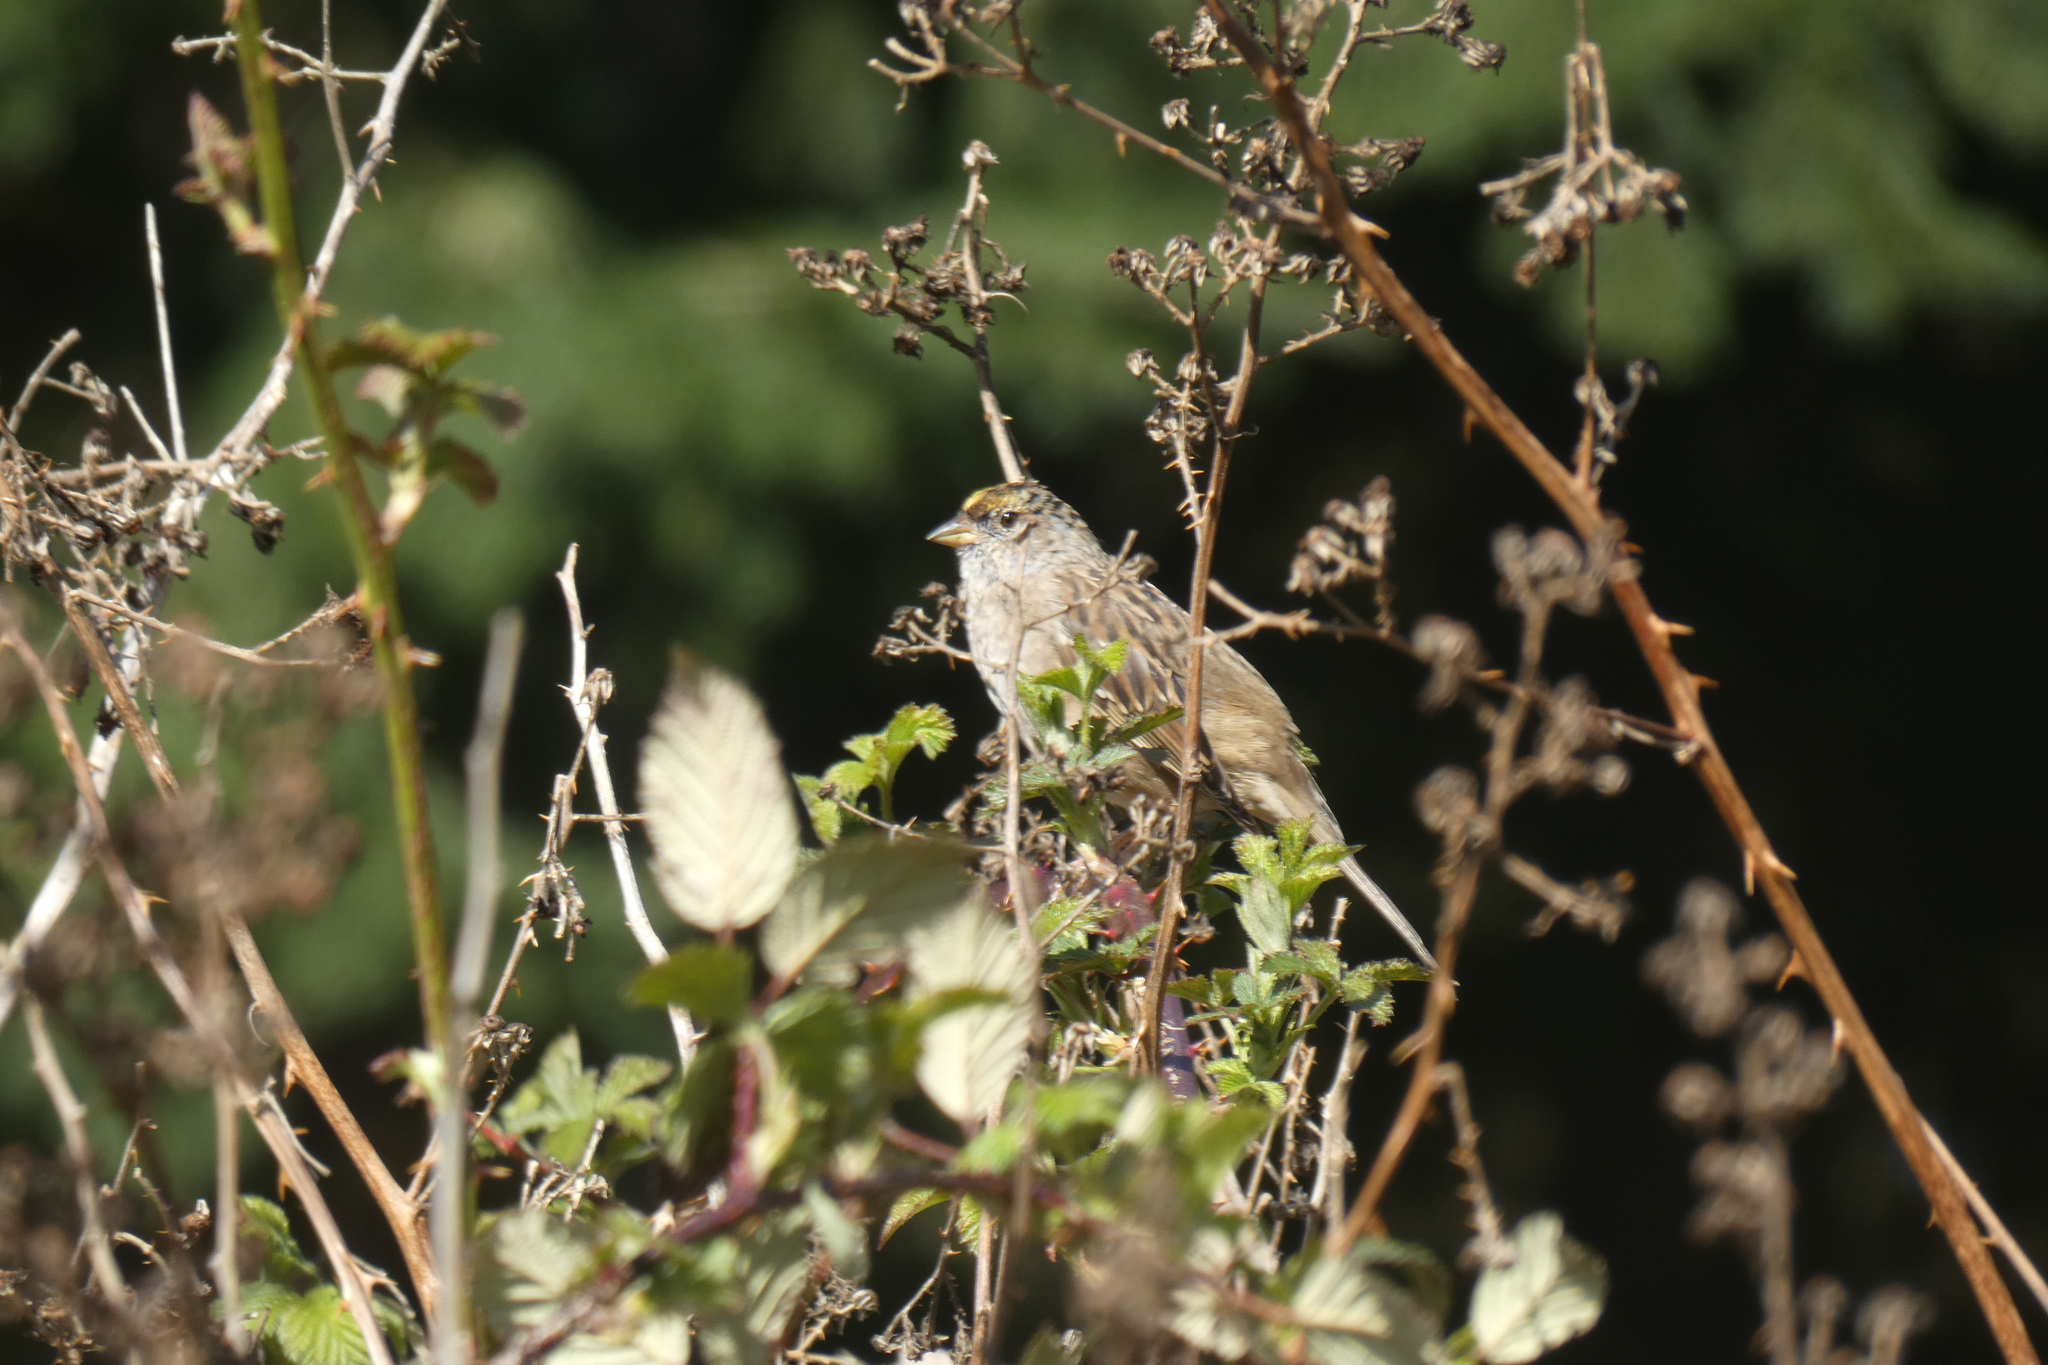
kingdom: Animalia
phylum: Chordata
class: Aves
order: Passeriformes
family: Passerellidae
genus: Zonotrichia
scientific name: Zonotrichia atricapilla
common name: Golden-crowned sparrow
